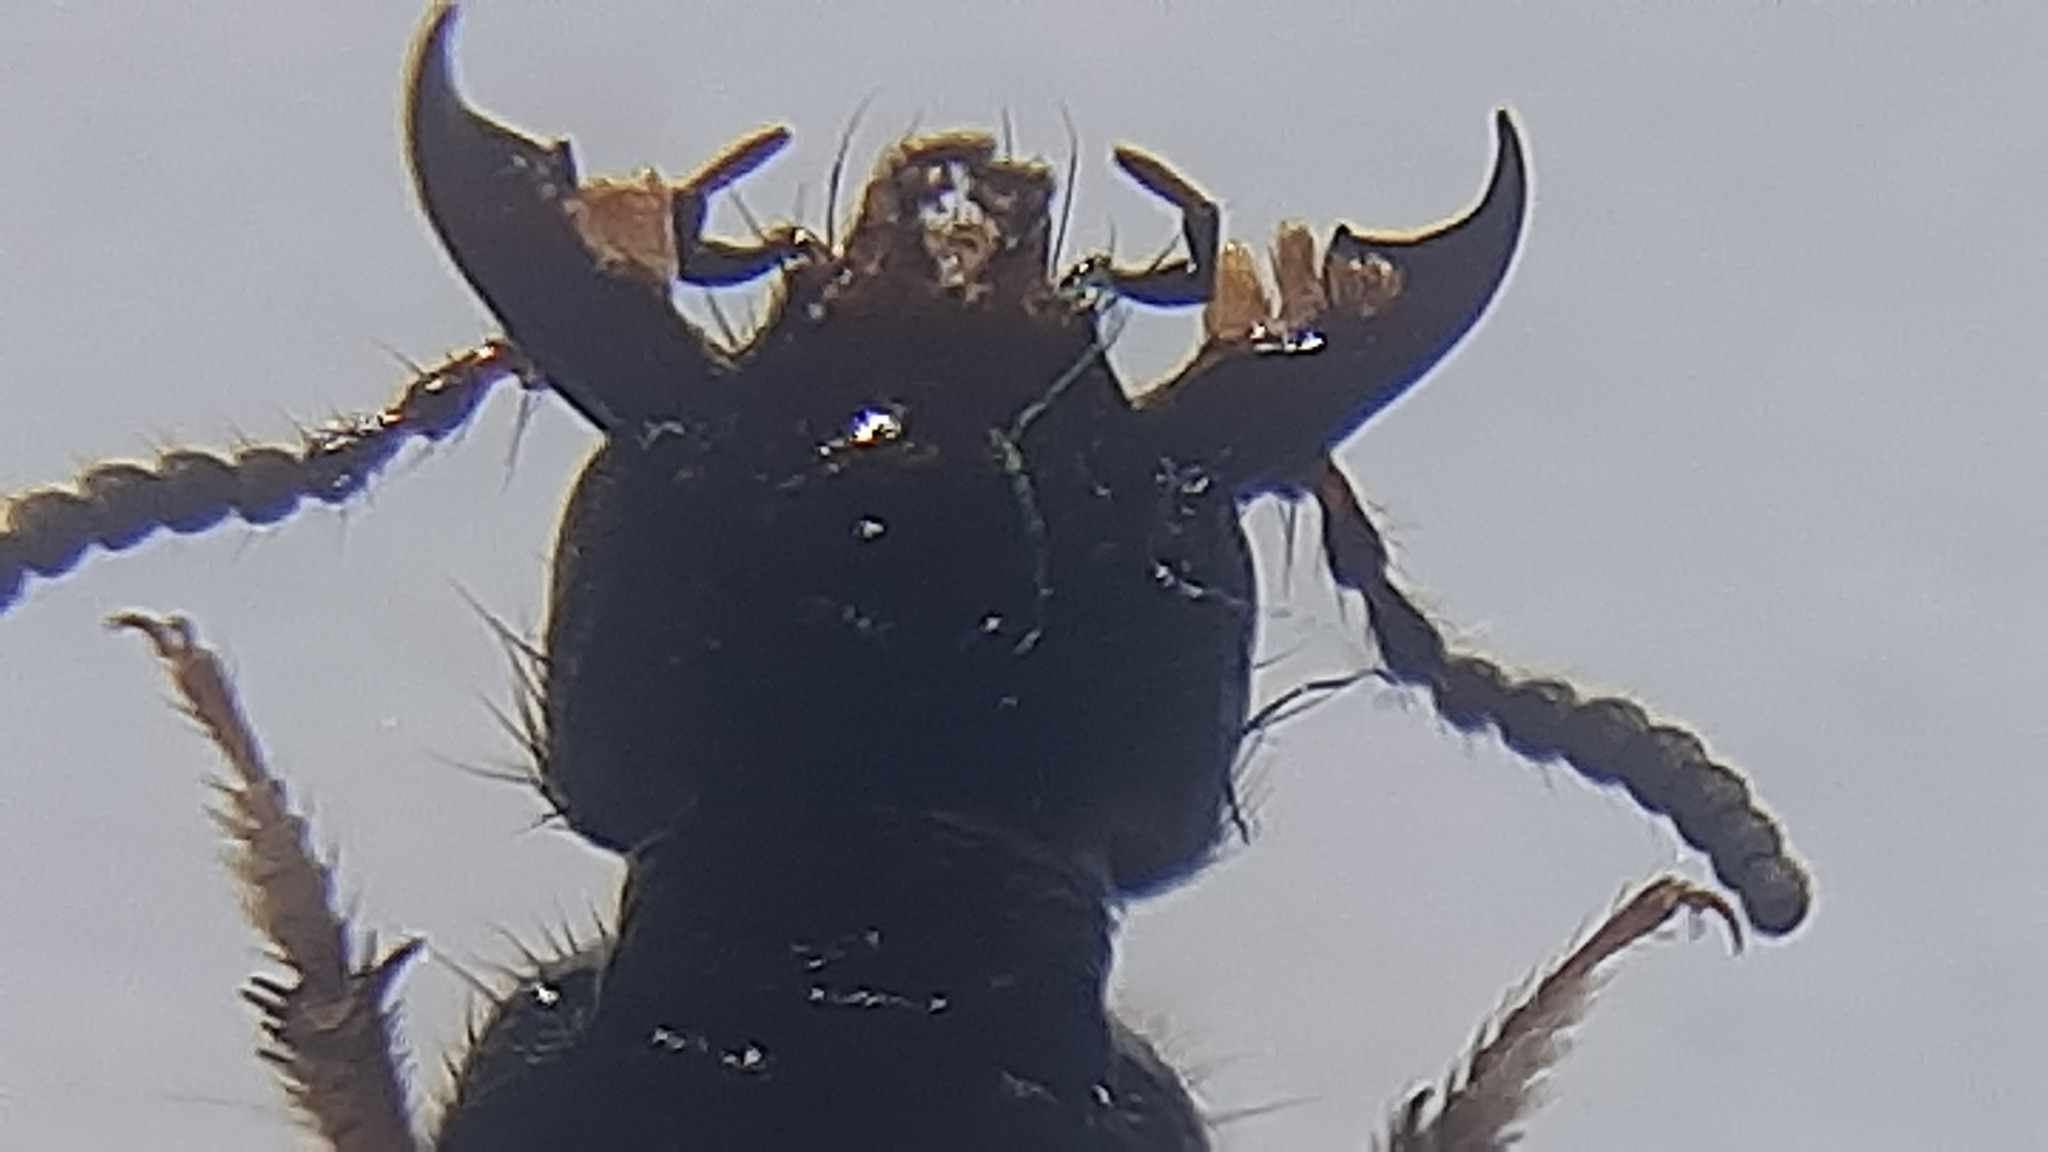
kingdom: Animalia
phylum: Arthropoda
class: Insecta
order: Coleoptera
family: Staphylinidae
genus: Philonthus
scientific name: Philonthus spinipes
